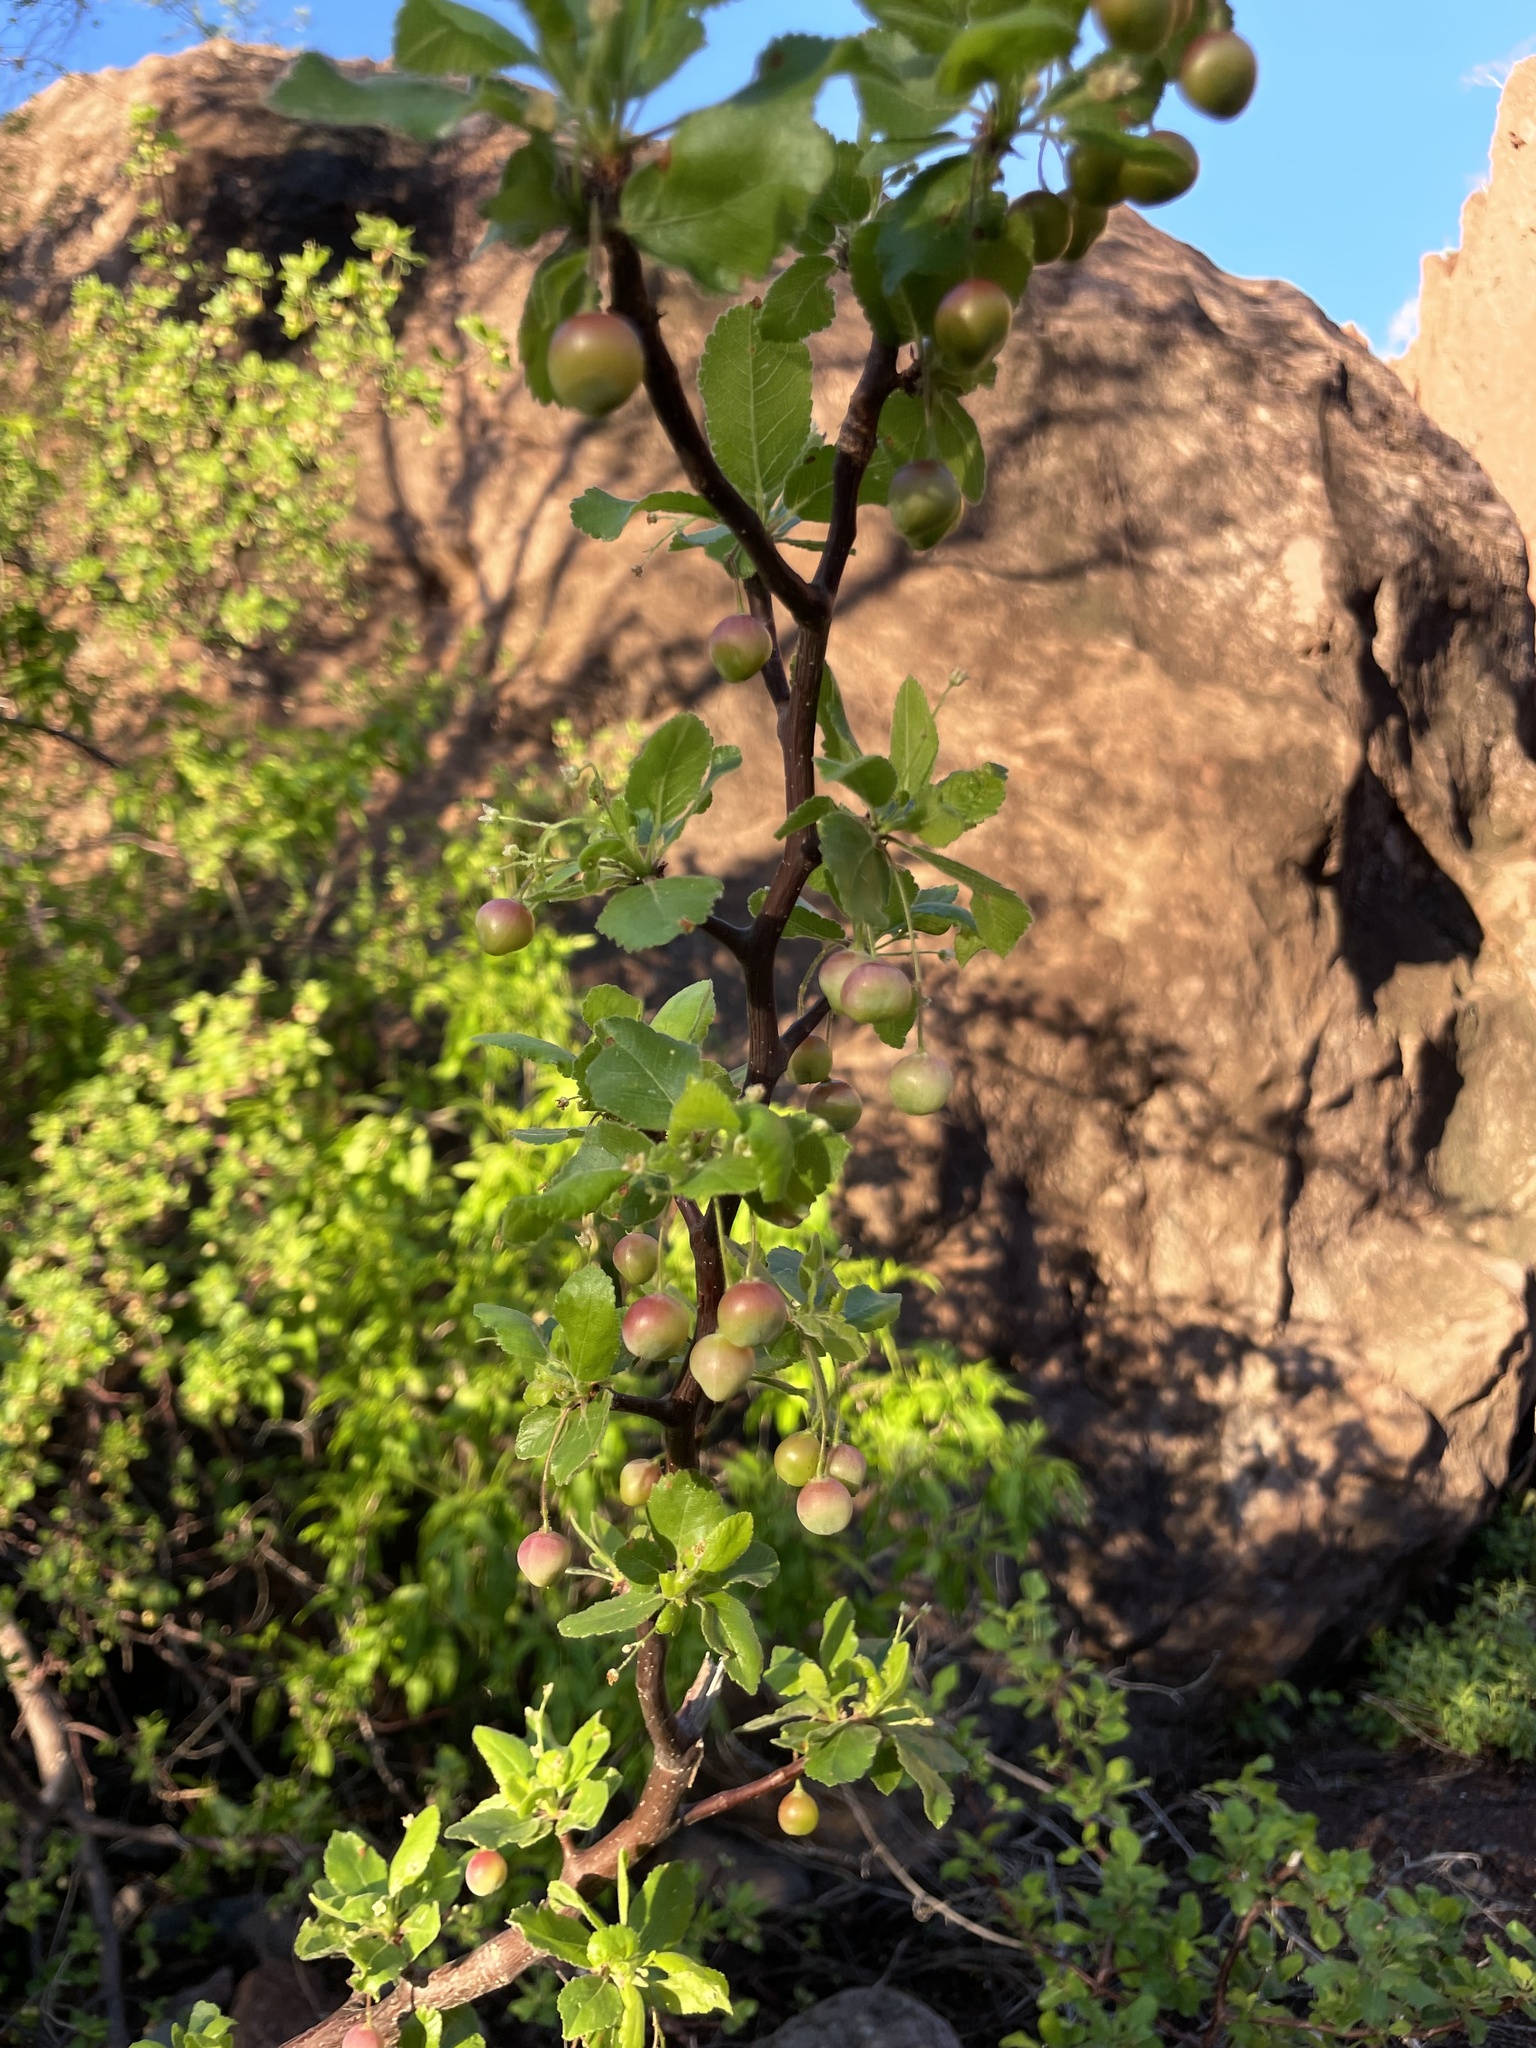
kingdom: Plantae
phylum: Tracheophyta
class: Magnoliopsida
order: Sapindales
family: Burseraceae
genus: Bursera
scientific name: Bursera epinnata
